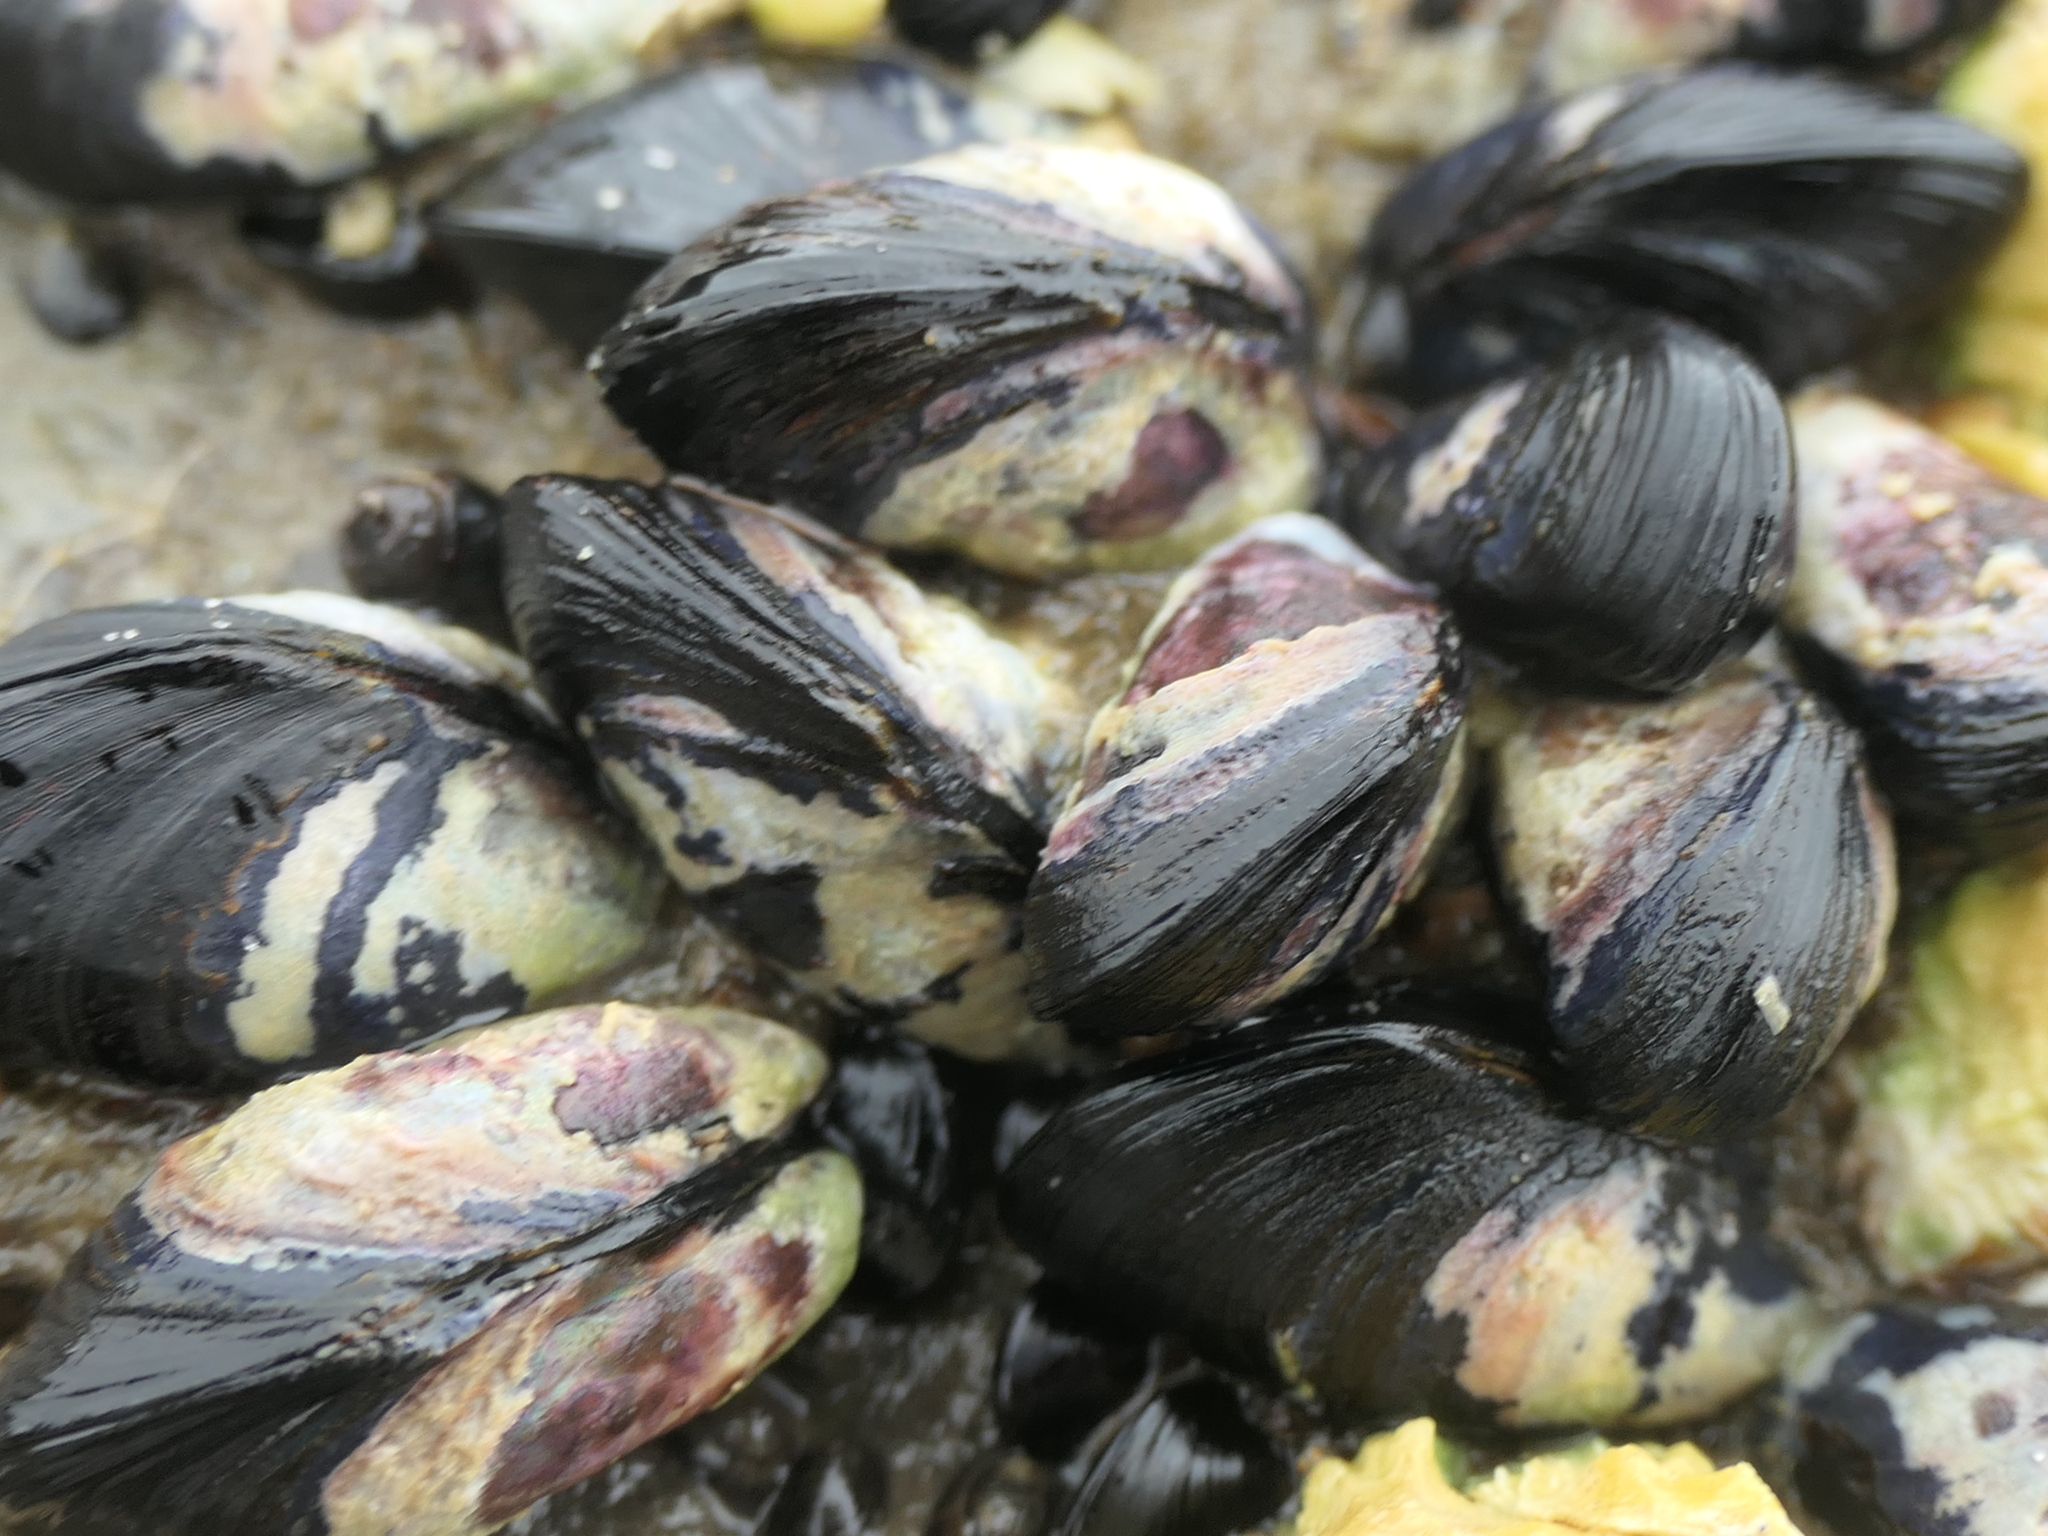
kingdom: Animalia
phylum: Mollusca
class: Bivalvia
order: Mytilida
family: Mytilidae
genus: Xenostrobus
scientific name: Xenostrobus neozelanicus
